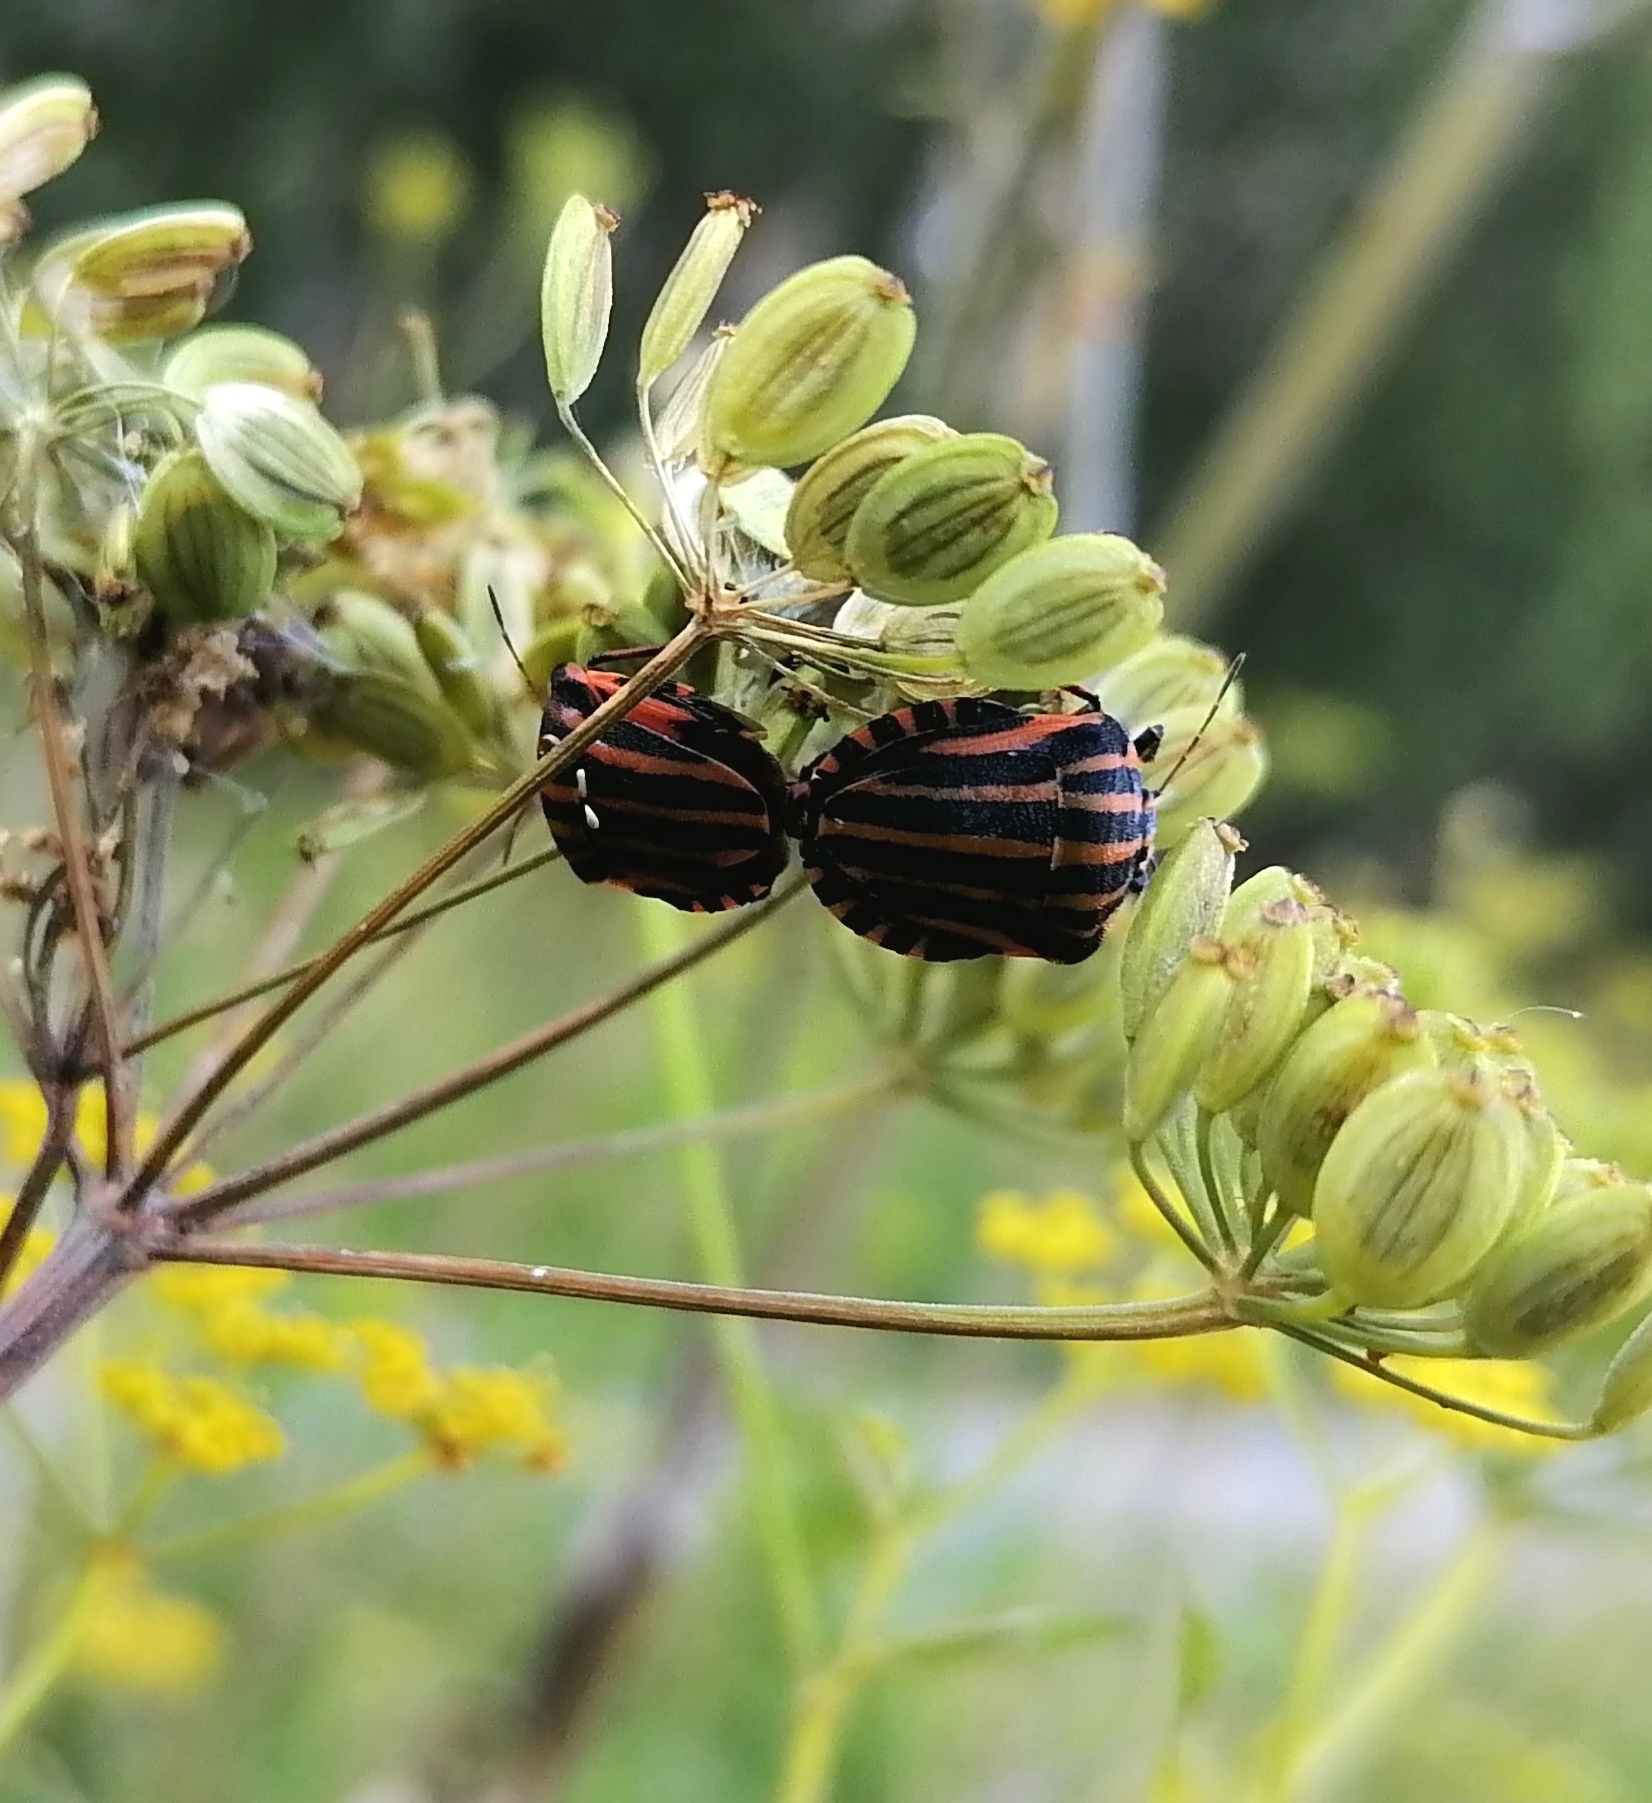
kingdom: Animalia
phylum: Arthropoda
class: Insecta
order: Hemiptera
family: Pentatomidae
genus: Graphosoma
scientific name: Graphosoma italicum
